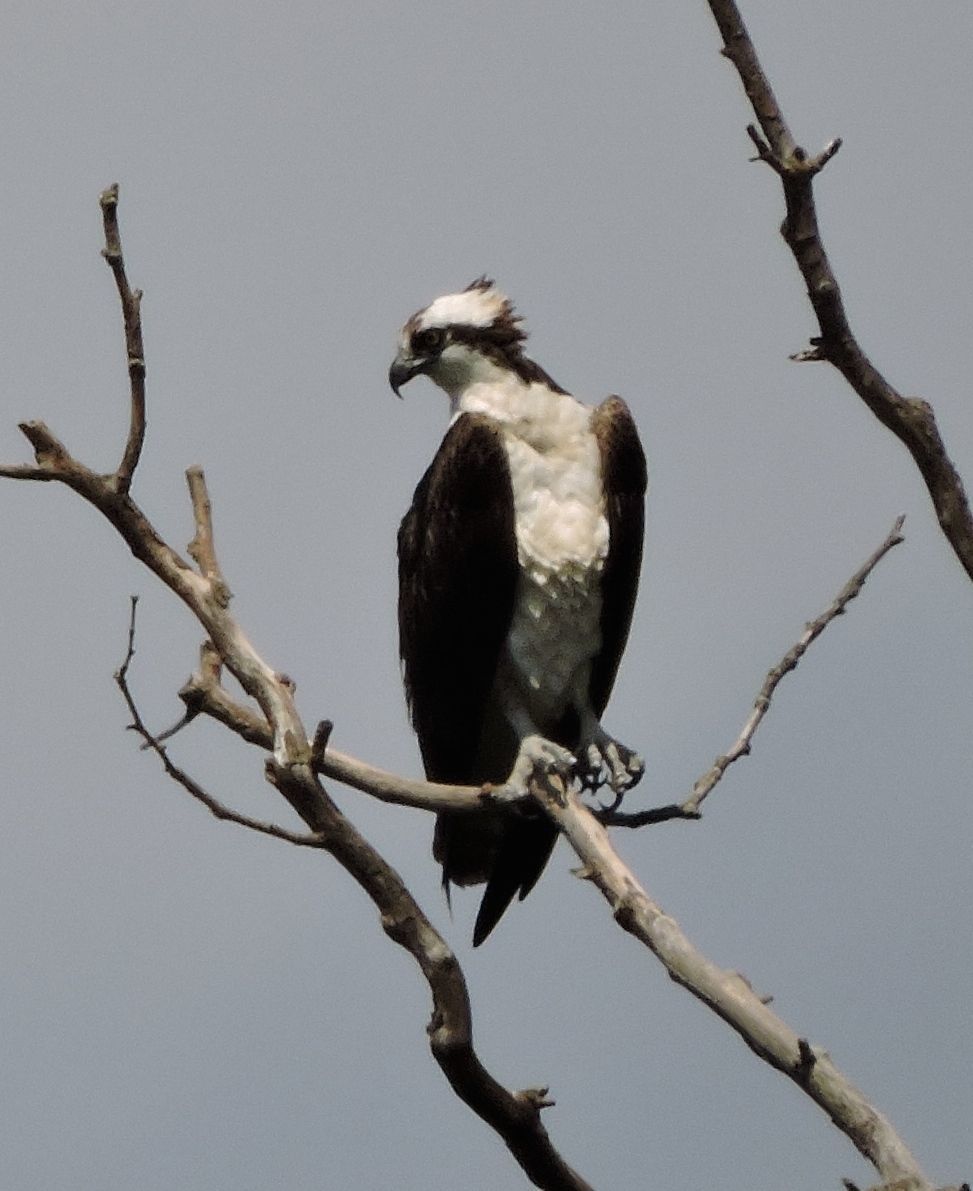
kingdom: Animalia
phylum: Chordata
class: Aves
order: Accipitriformes
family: Pandionidae
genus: Pandion
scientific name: Pandion haliaetus
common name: Osprey
